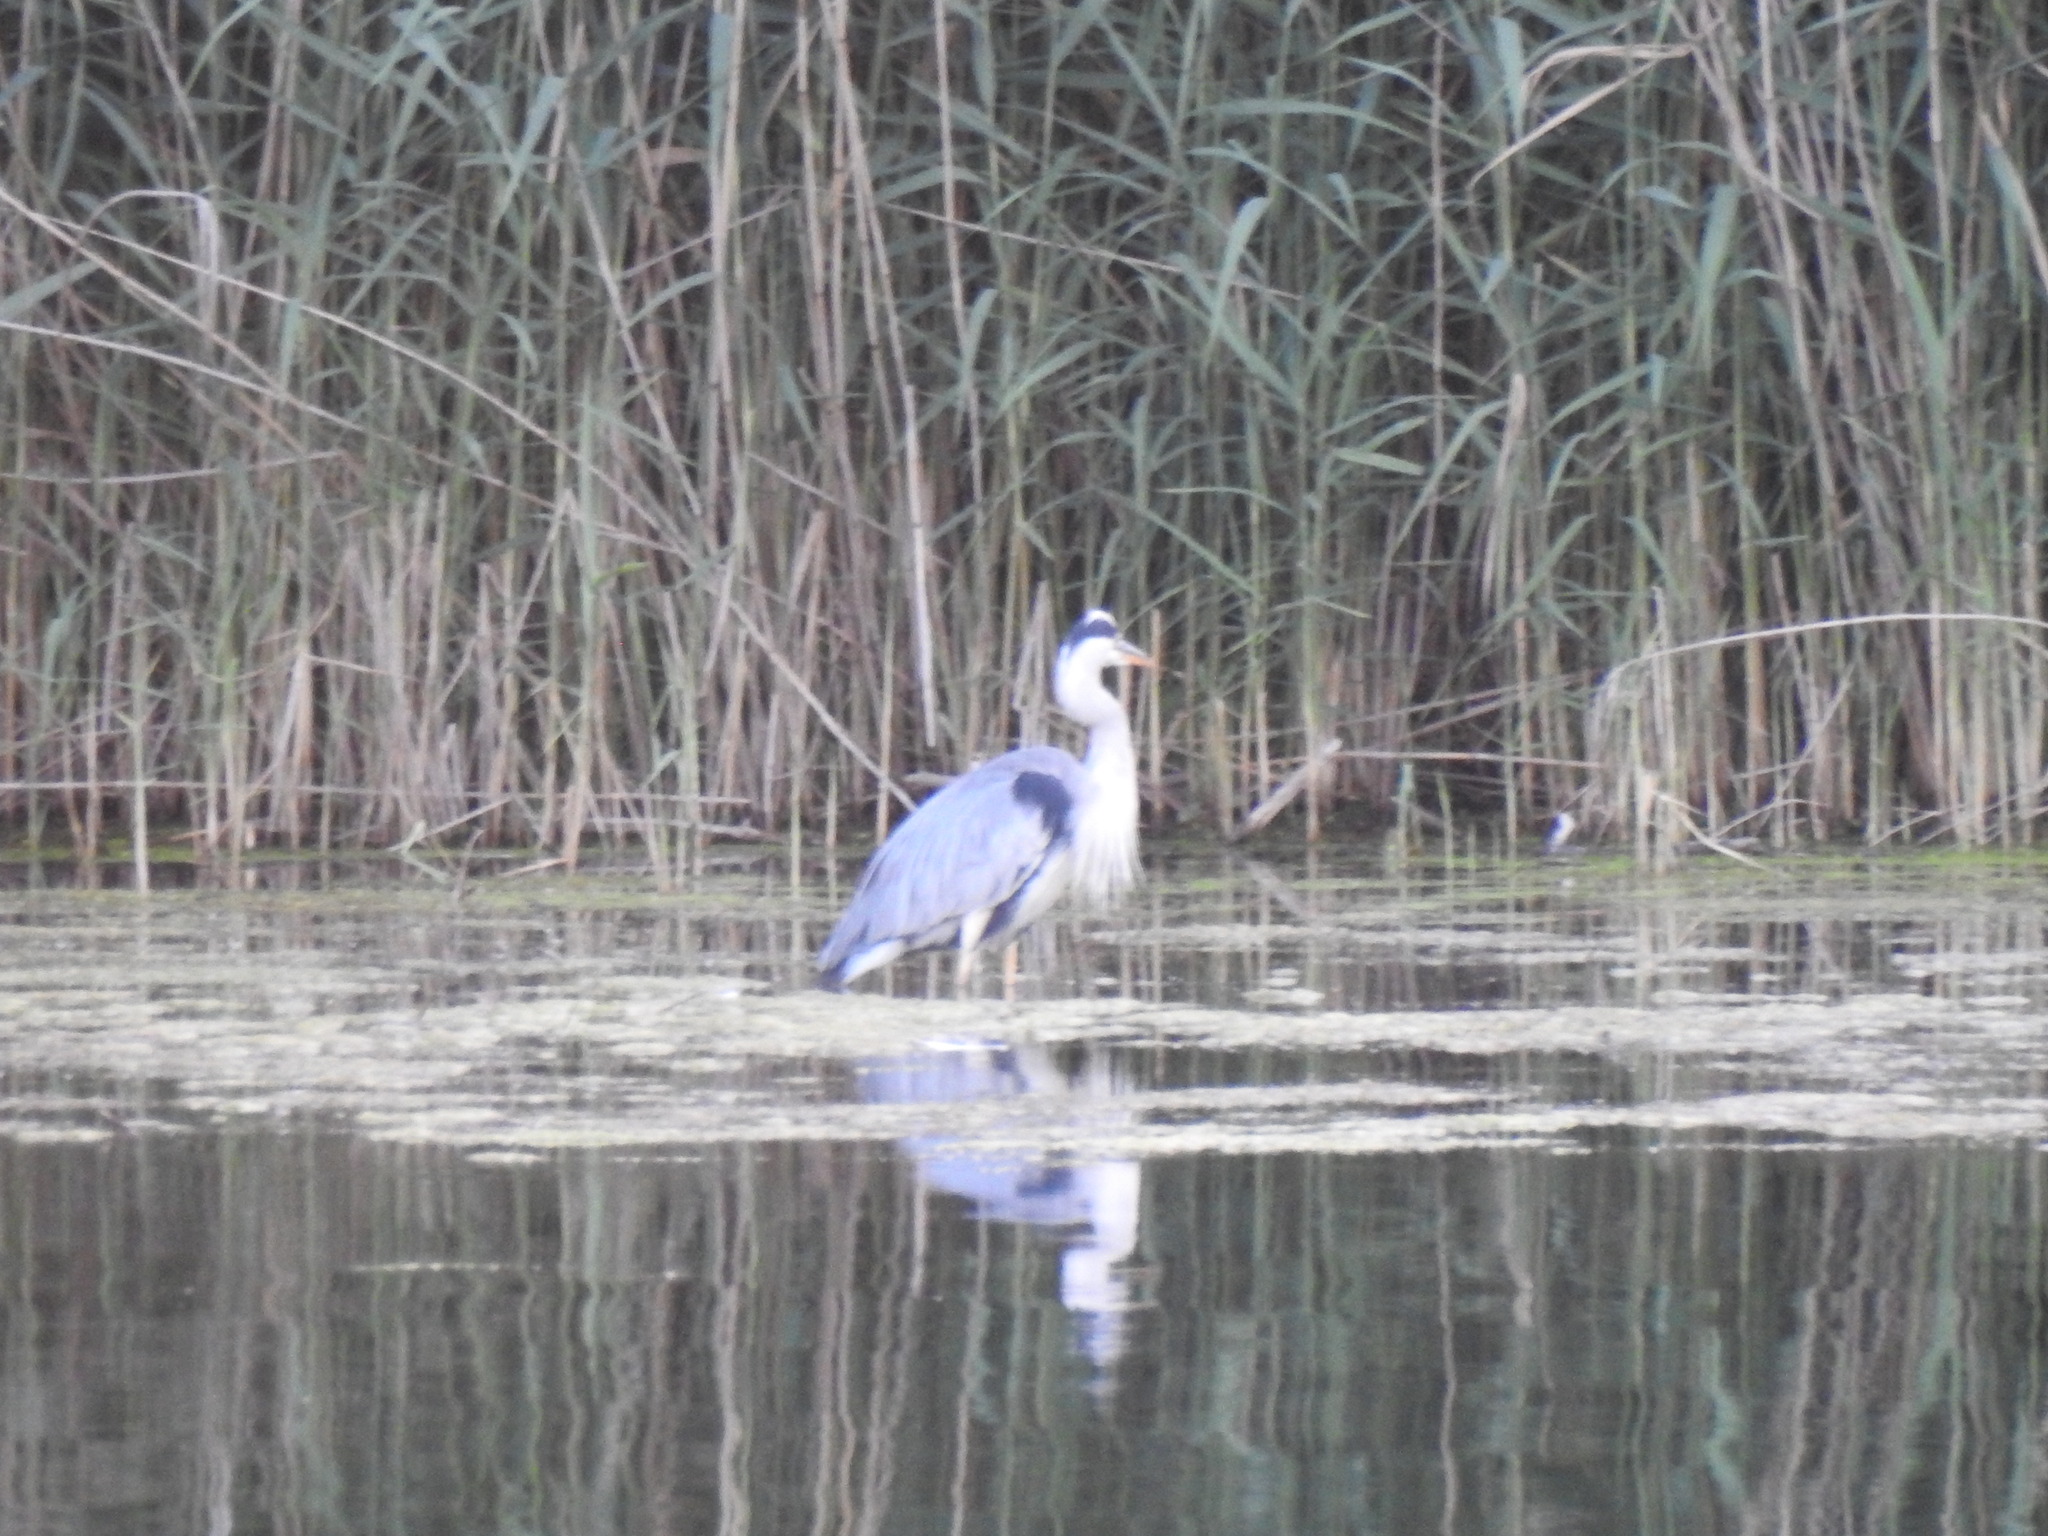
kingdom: Animalia
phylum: Chordata
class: Aves
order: Pelecaniformes
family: Ardeidae
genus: Ardea
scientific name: Ardea cinerea
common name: Grey heron
